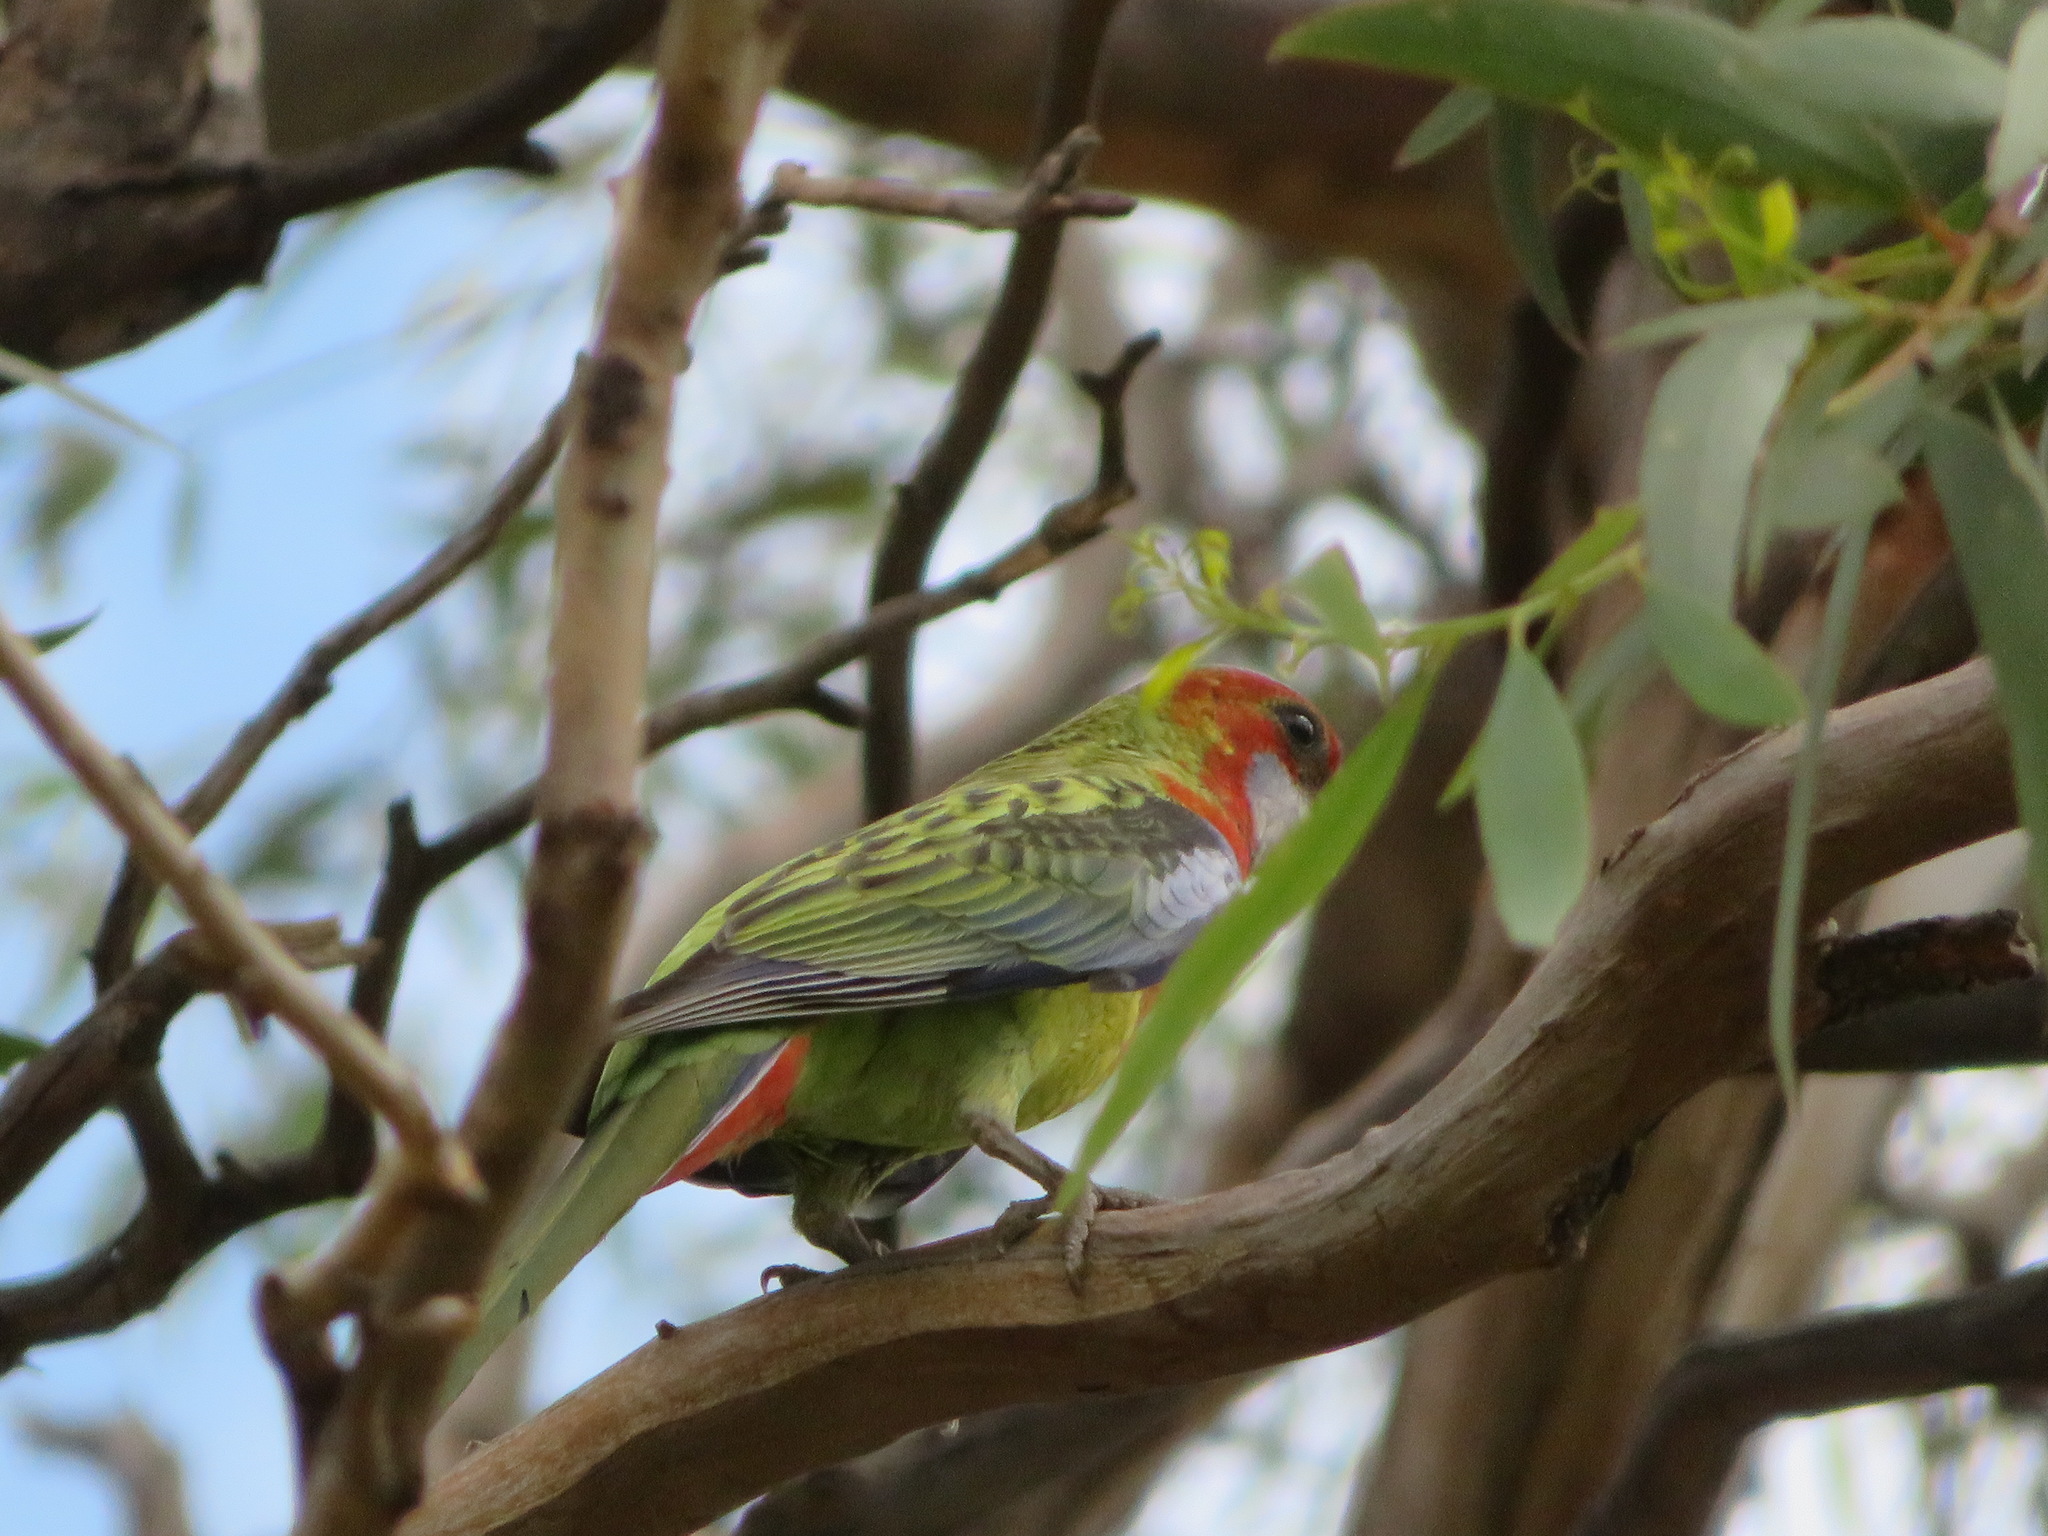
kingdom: Animalia
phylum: Chordata
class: Aves
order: Psittaciformes
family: Psittacidae
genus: Platycercus
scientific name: Platycercus eximius
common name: Eastern rosella
